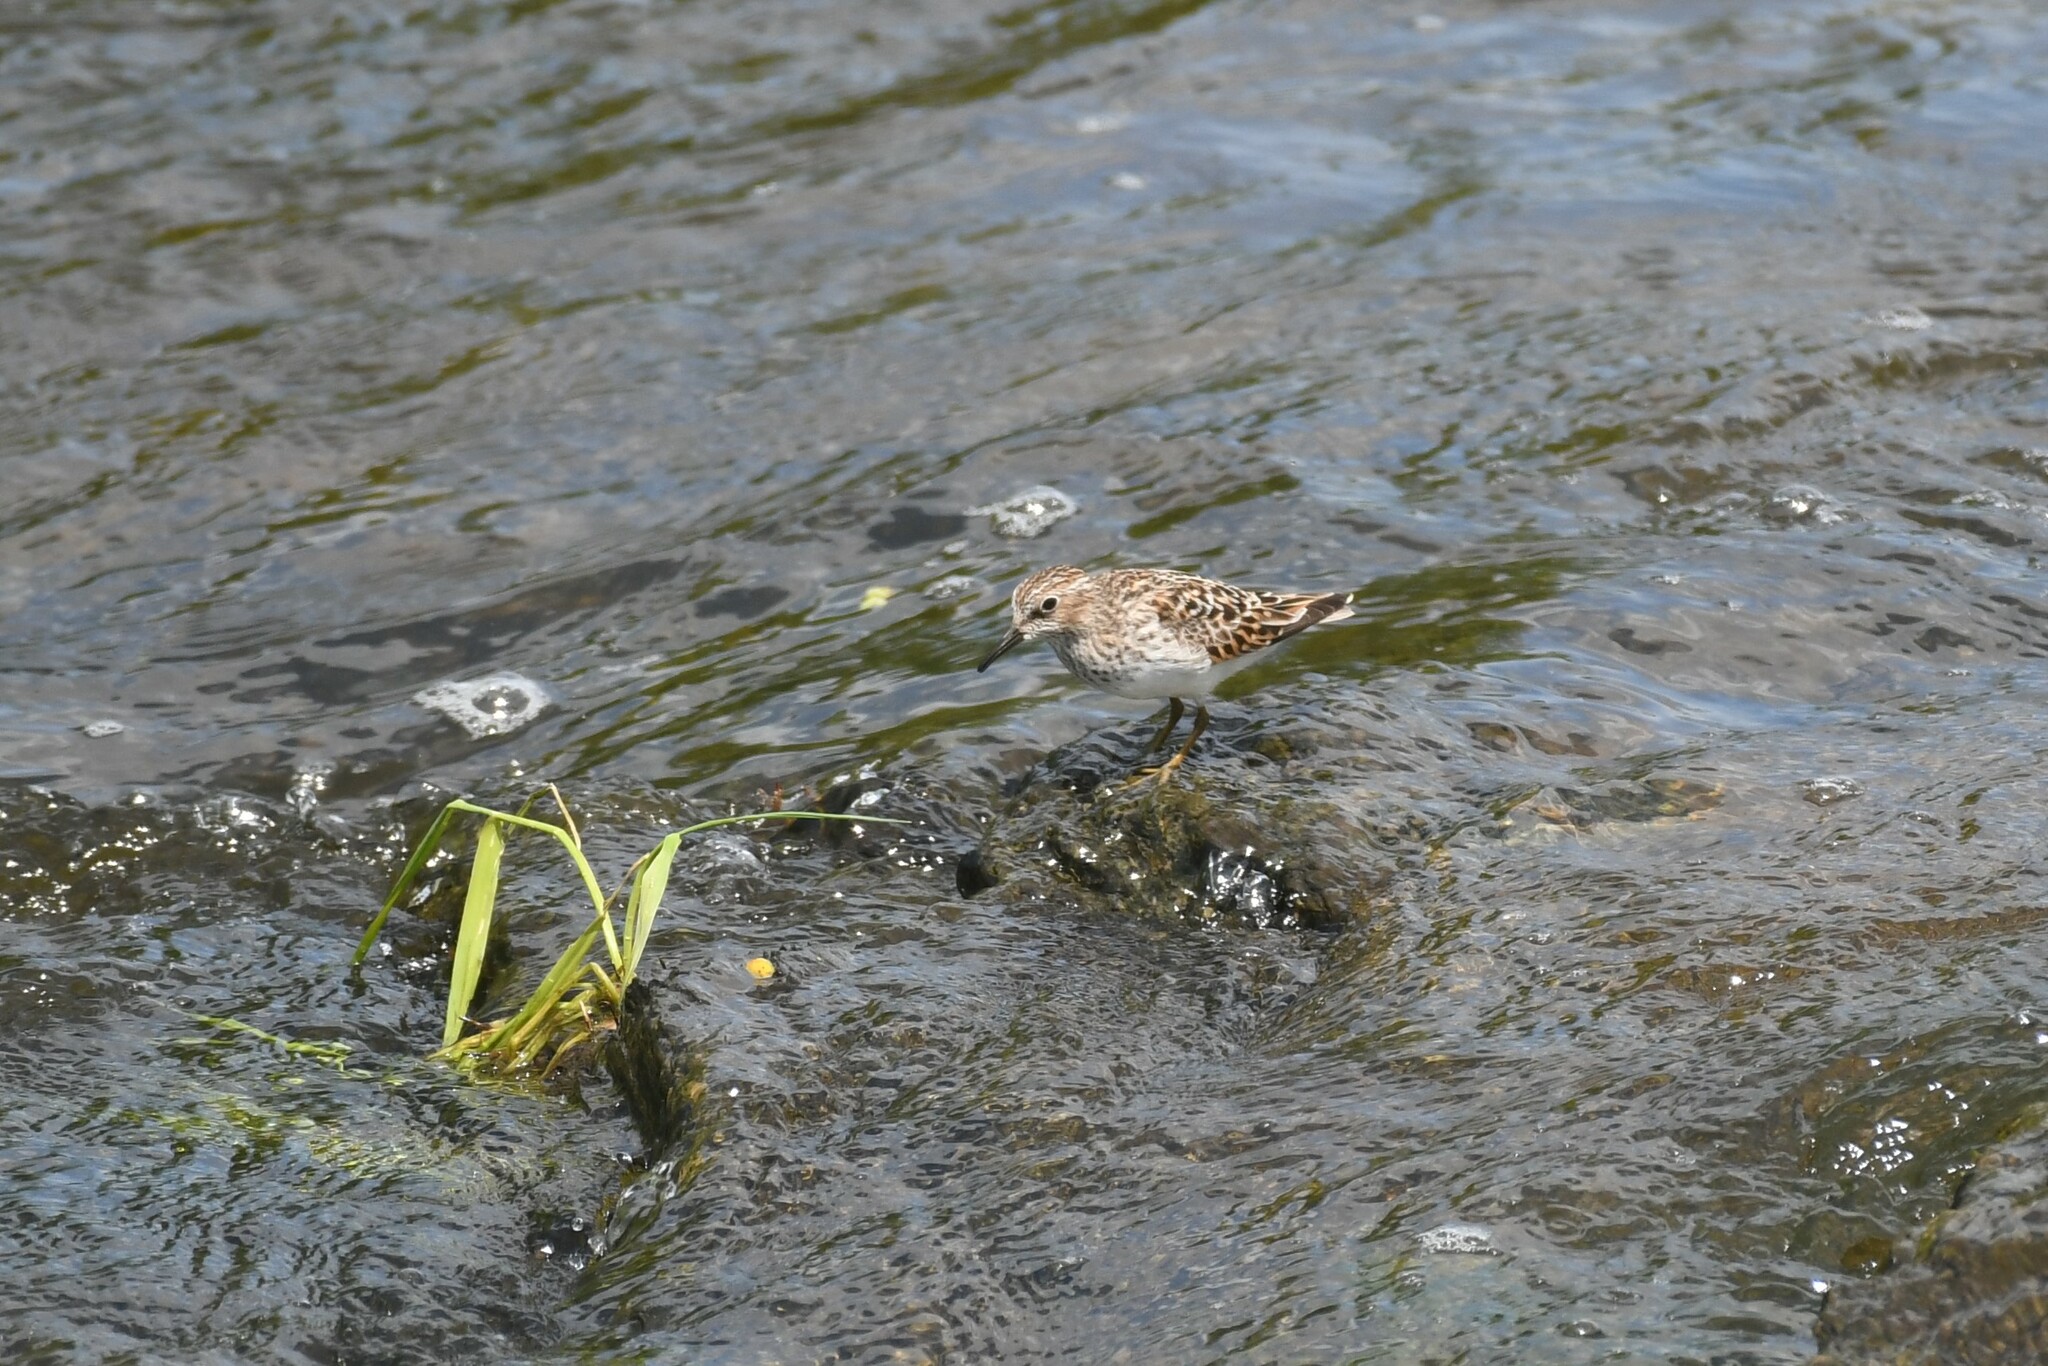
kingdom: Animalia
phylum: Chordata
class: Aves
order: Charadriiformes
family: Scolopacidae
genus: Calidris
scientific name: Calidris minutilla
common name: Least sandpiper
